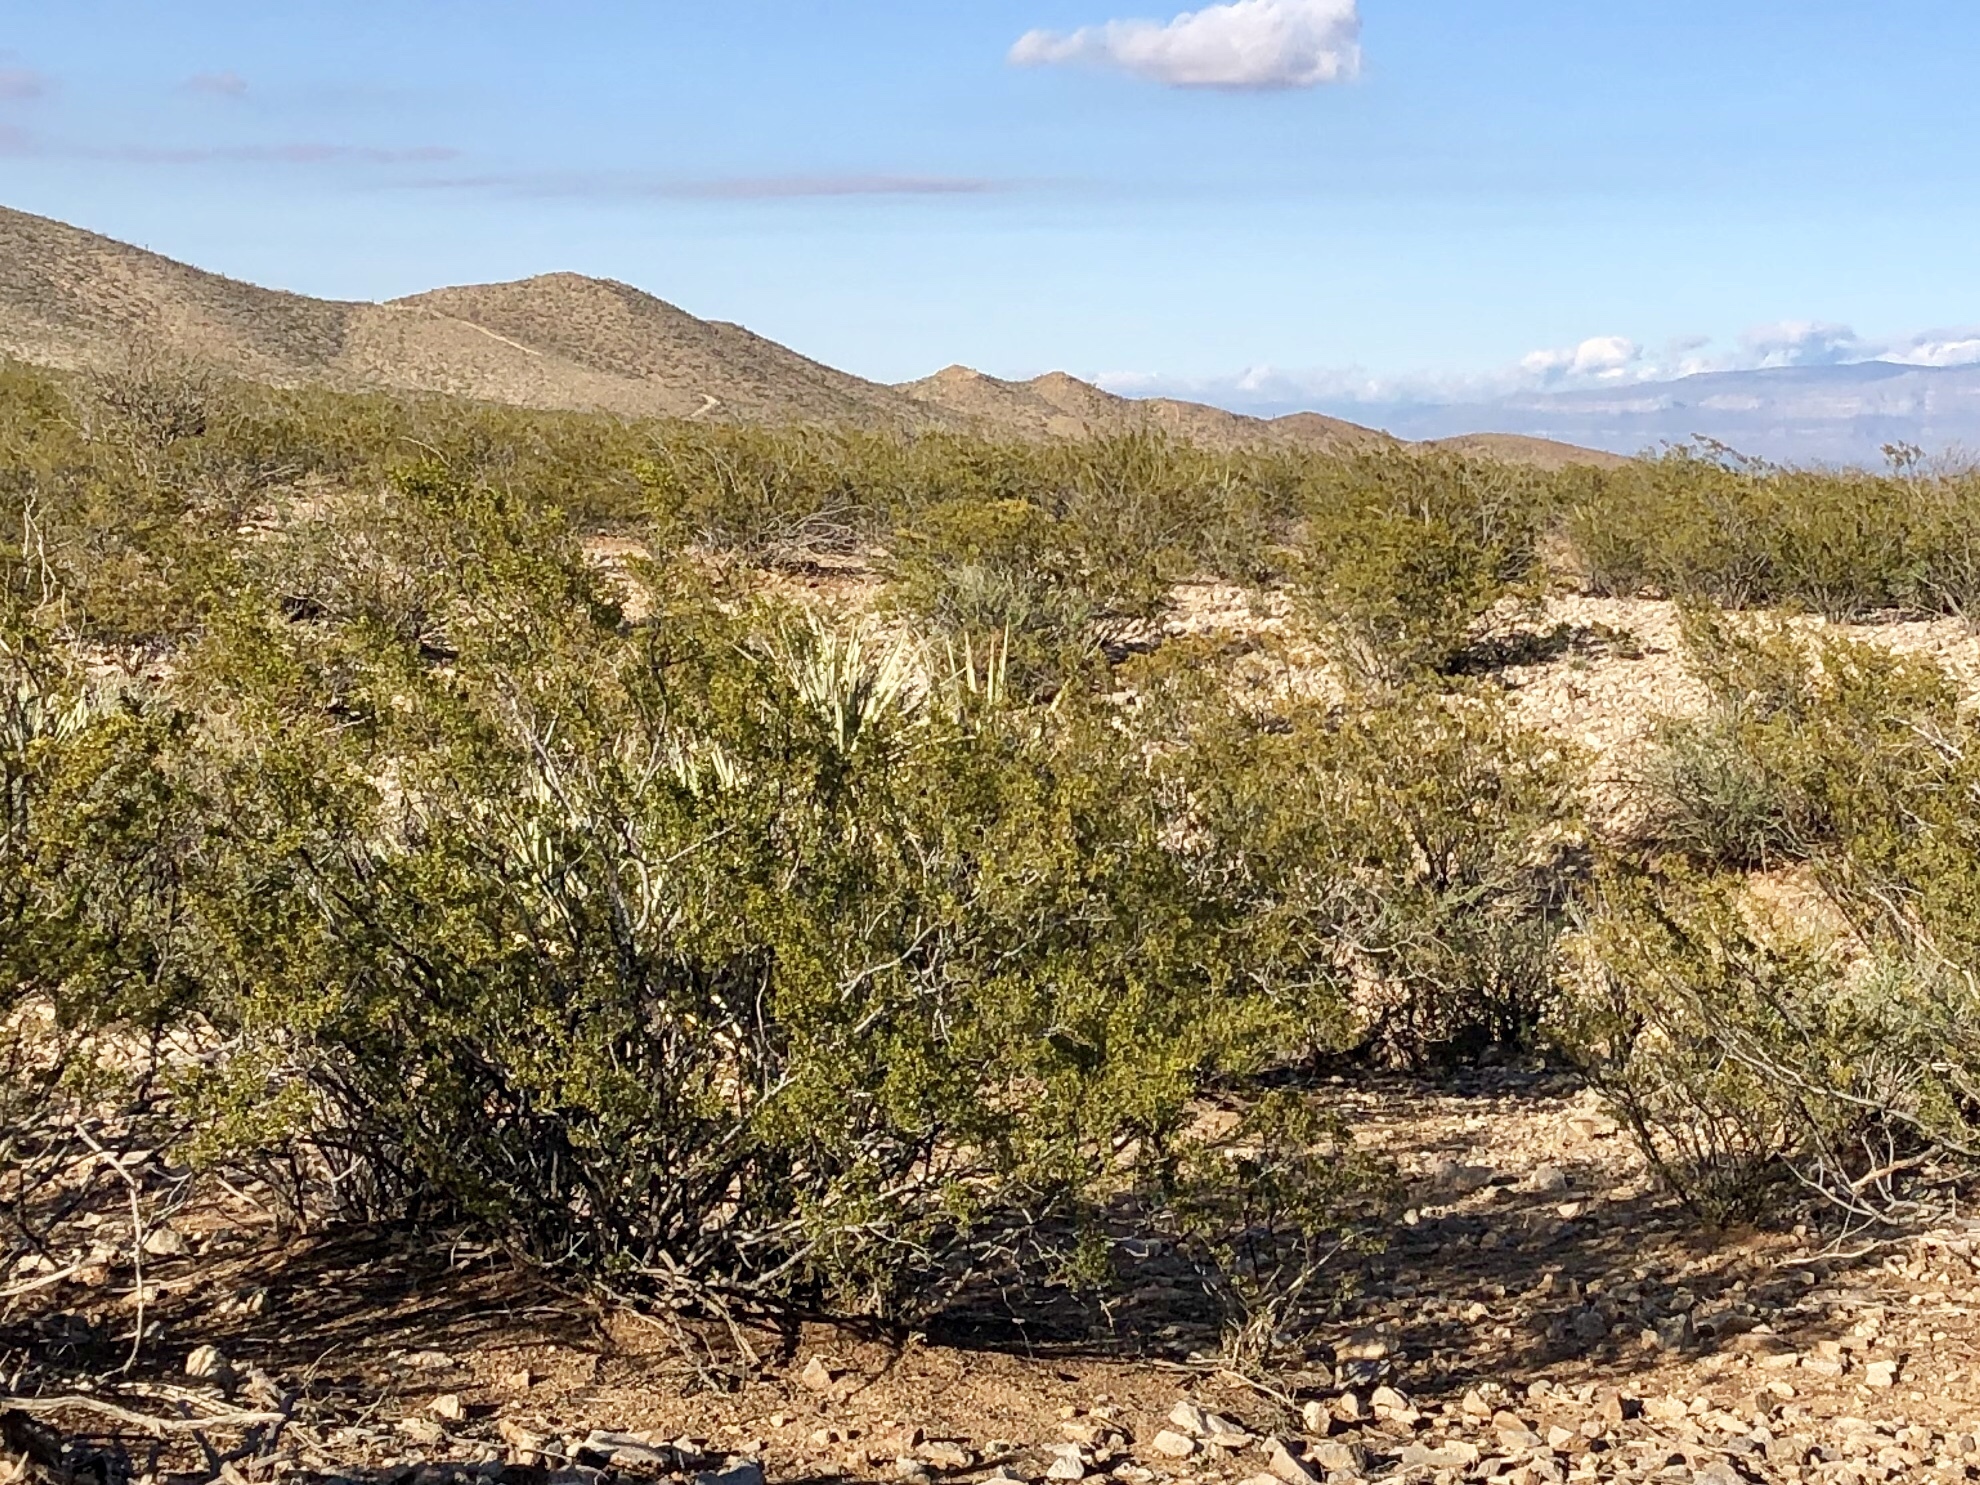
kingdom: Plantae
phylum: Tracheophyta
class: Magnoliopsida
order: Zygophyllales
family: Zygophyllaceae
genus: Larrea
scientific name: Larrea tridentata
